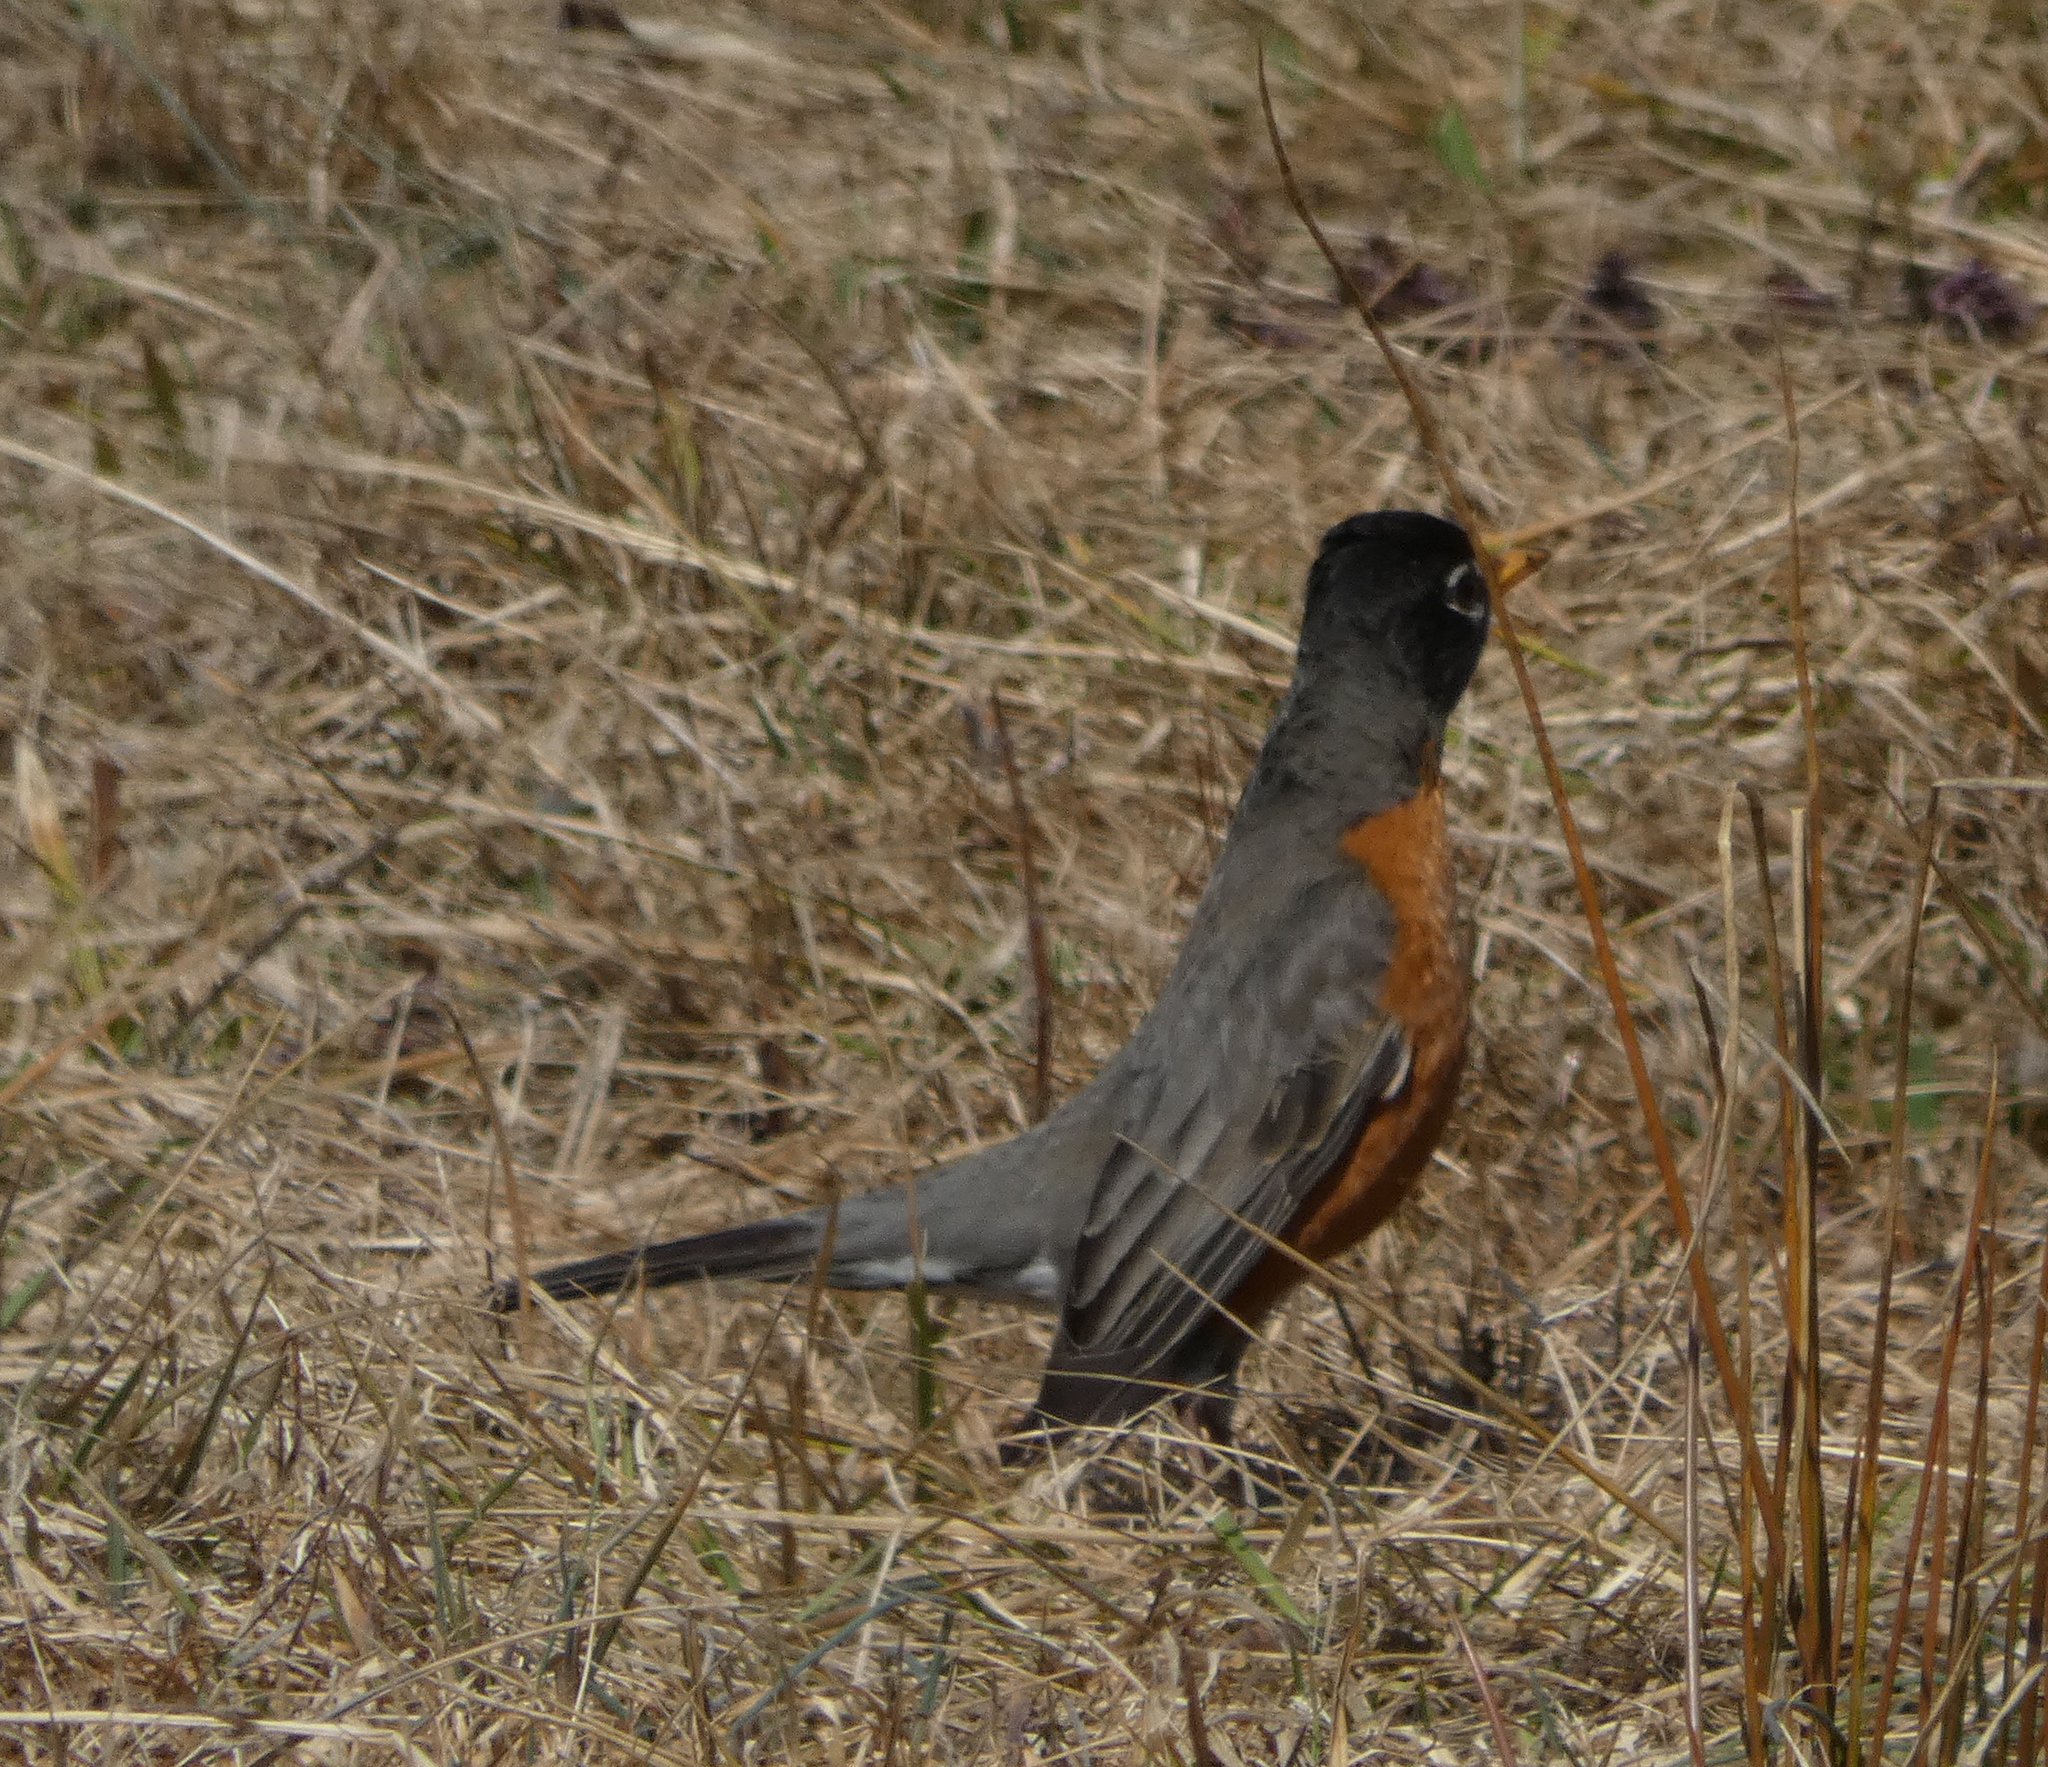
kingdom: Animalia
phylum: Chordata
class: Aves
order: Passeriformes
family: Turdidae
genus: Turdus
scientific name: Turdus migratorius
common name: American robin
